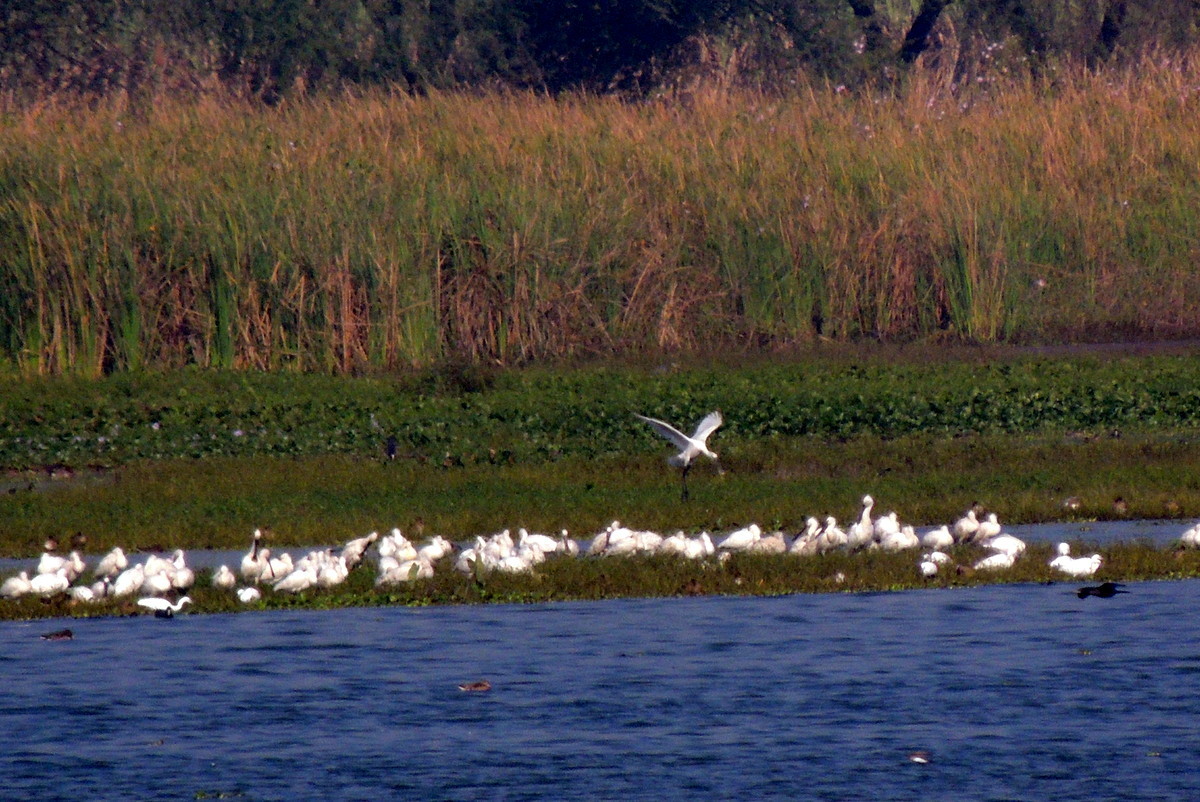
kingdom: Animalia
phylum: Chordata
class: Aves
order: Pelecaniformes
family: Threskiornithidae
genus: Platalea
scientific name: Platalea leucorodia
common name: Eurasian spoonbill
